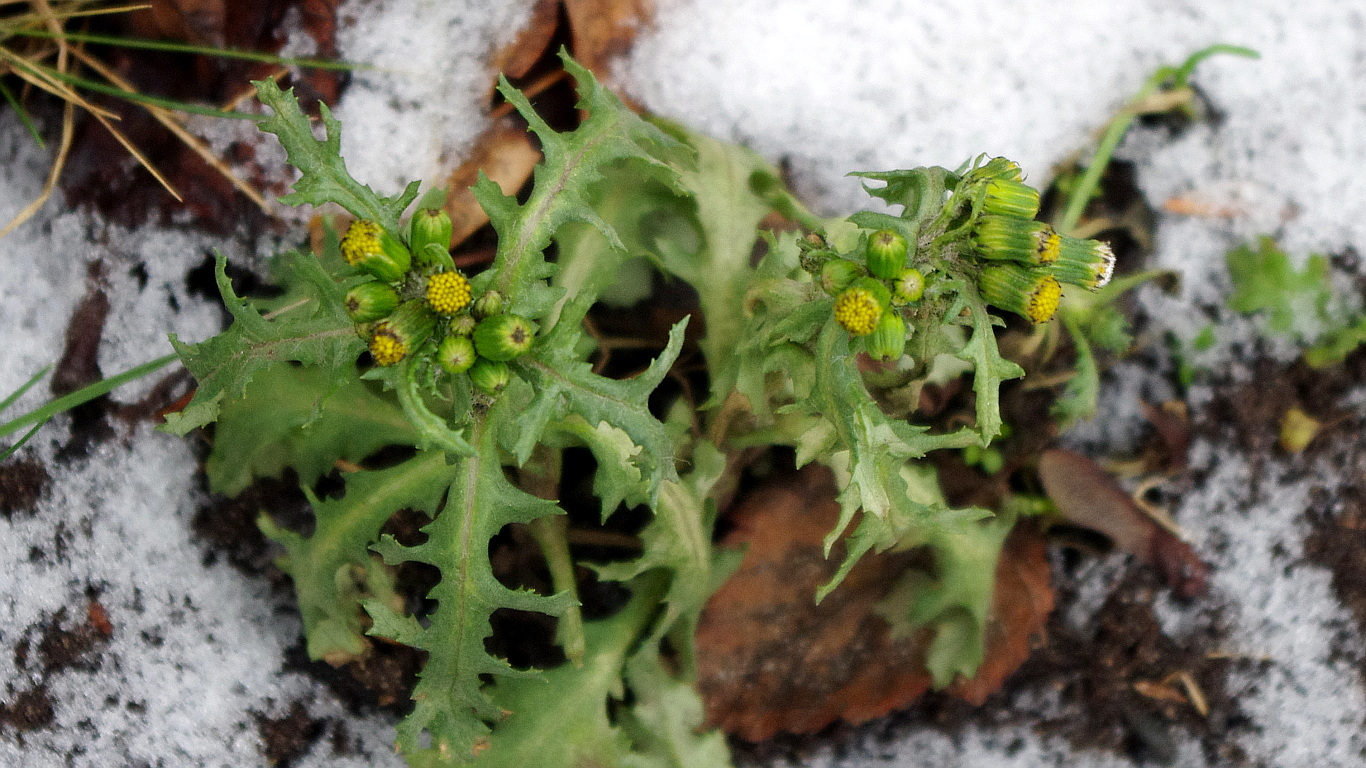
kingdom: Plantae
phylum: Tracheophyta
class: Magnoliopsida
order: Asterales
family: Asteraceae
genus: Senecio
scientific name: Senecio vulgaris
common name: Old-man-in-the-spring
